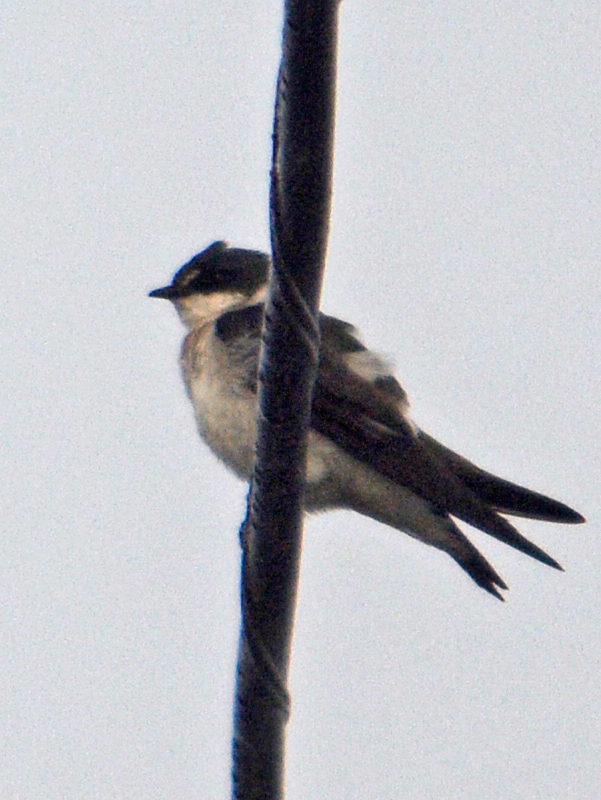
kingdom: Animalia
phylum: Chordata
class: Aves
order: Passeriformes
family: Hirundinidae
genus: Tachycineta
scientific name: Tachycineta albilinea
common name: Mangrove swallow
